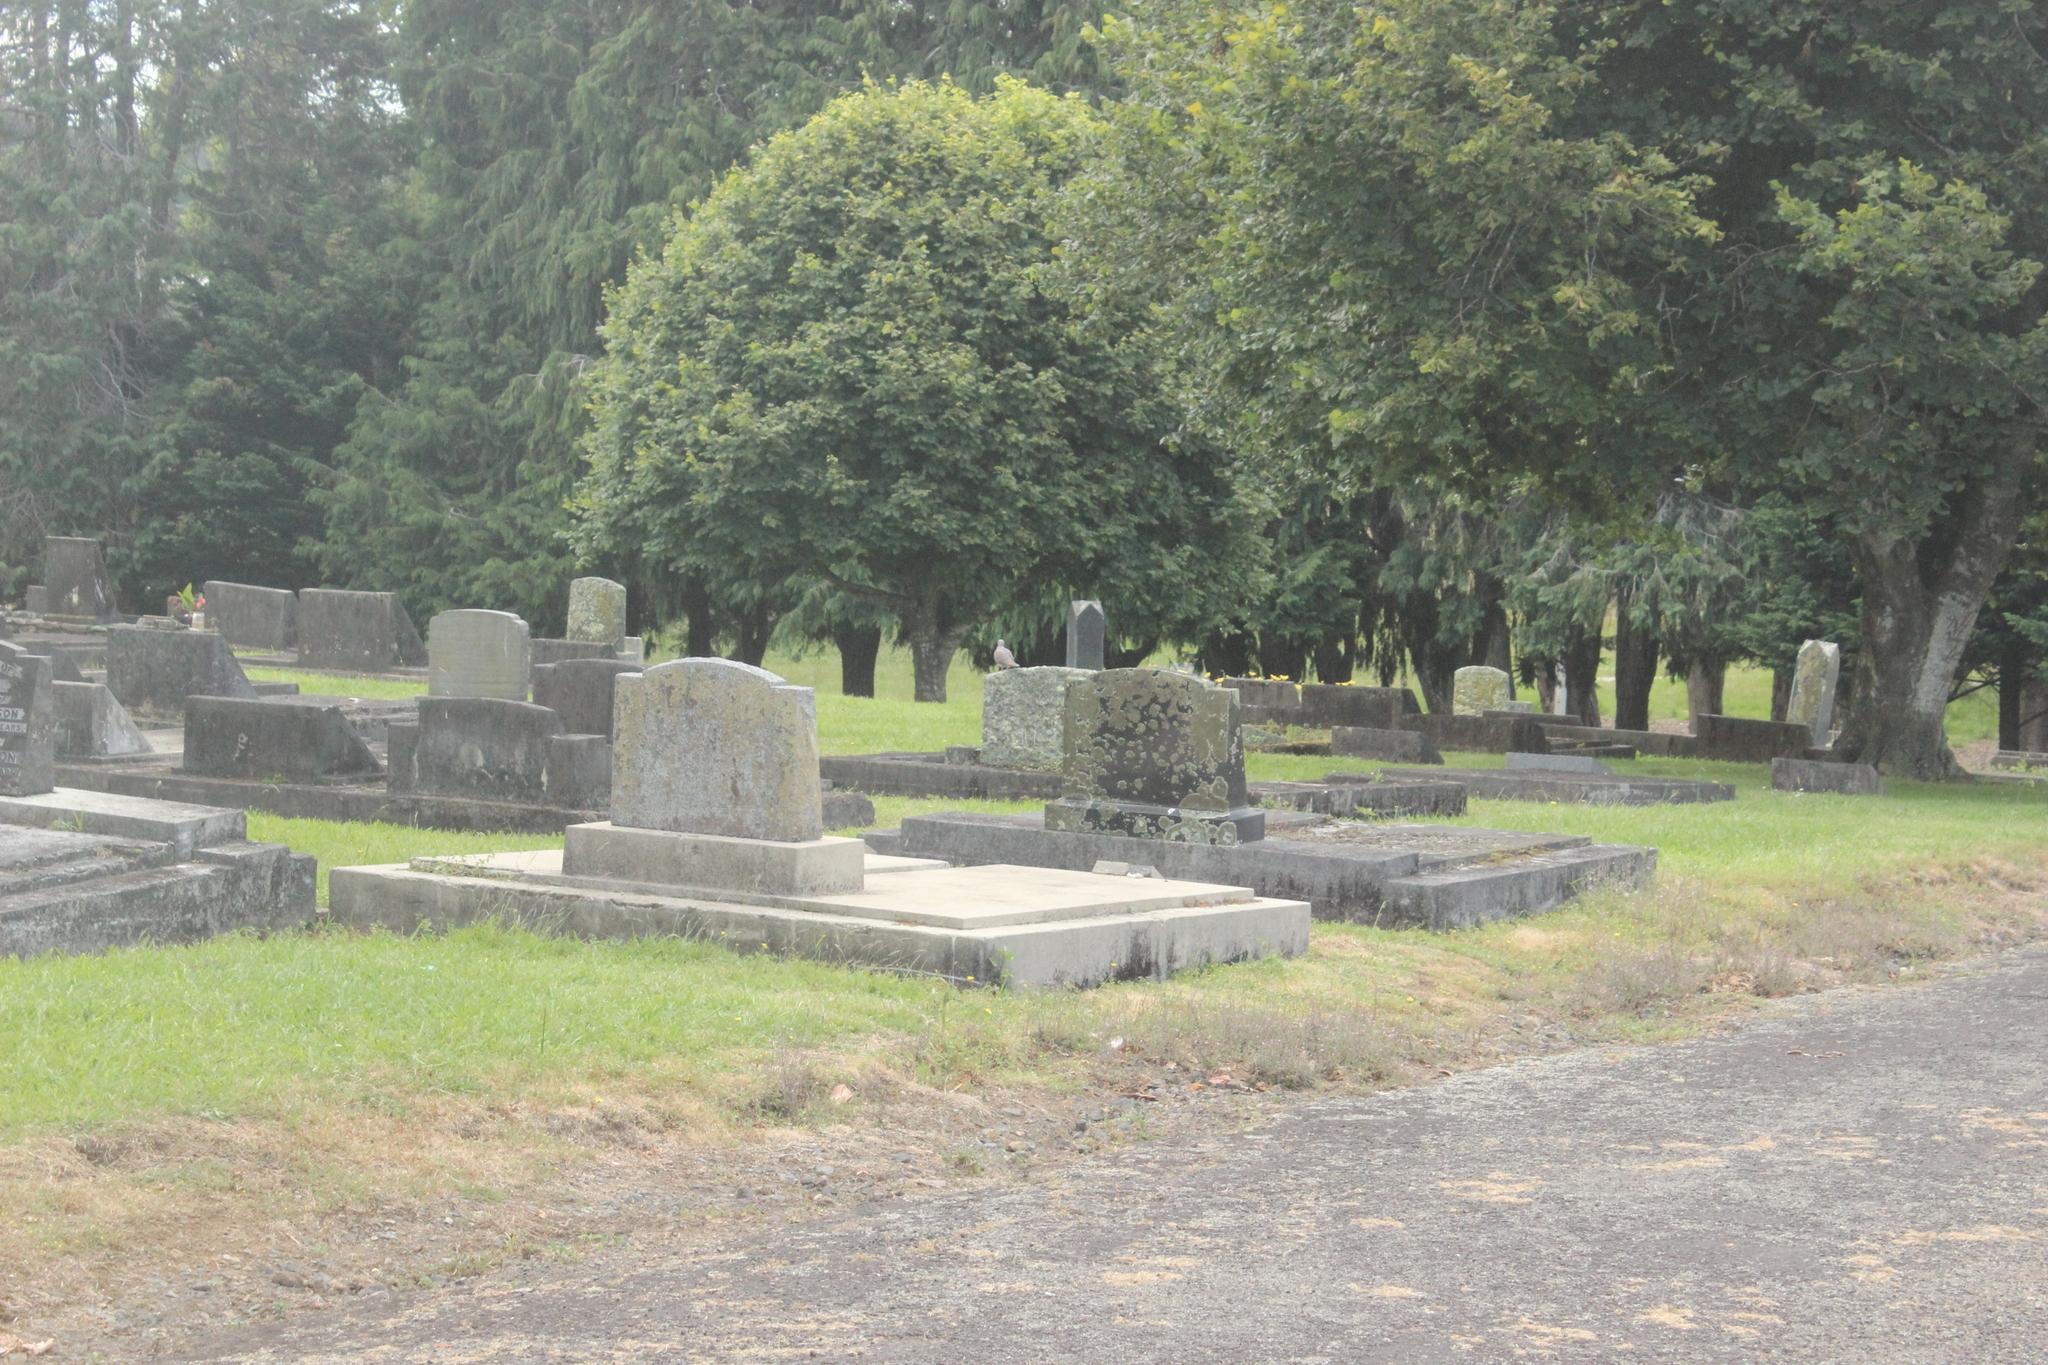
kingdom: Animalia
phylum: Chordata
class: Aves
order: Columbiformes
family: Columbidae
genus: Spilopelia
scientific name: Spilopelia chinensis
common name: Spotted dove
